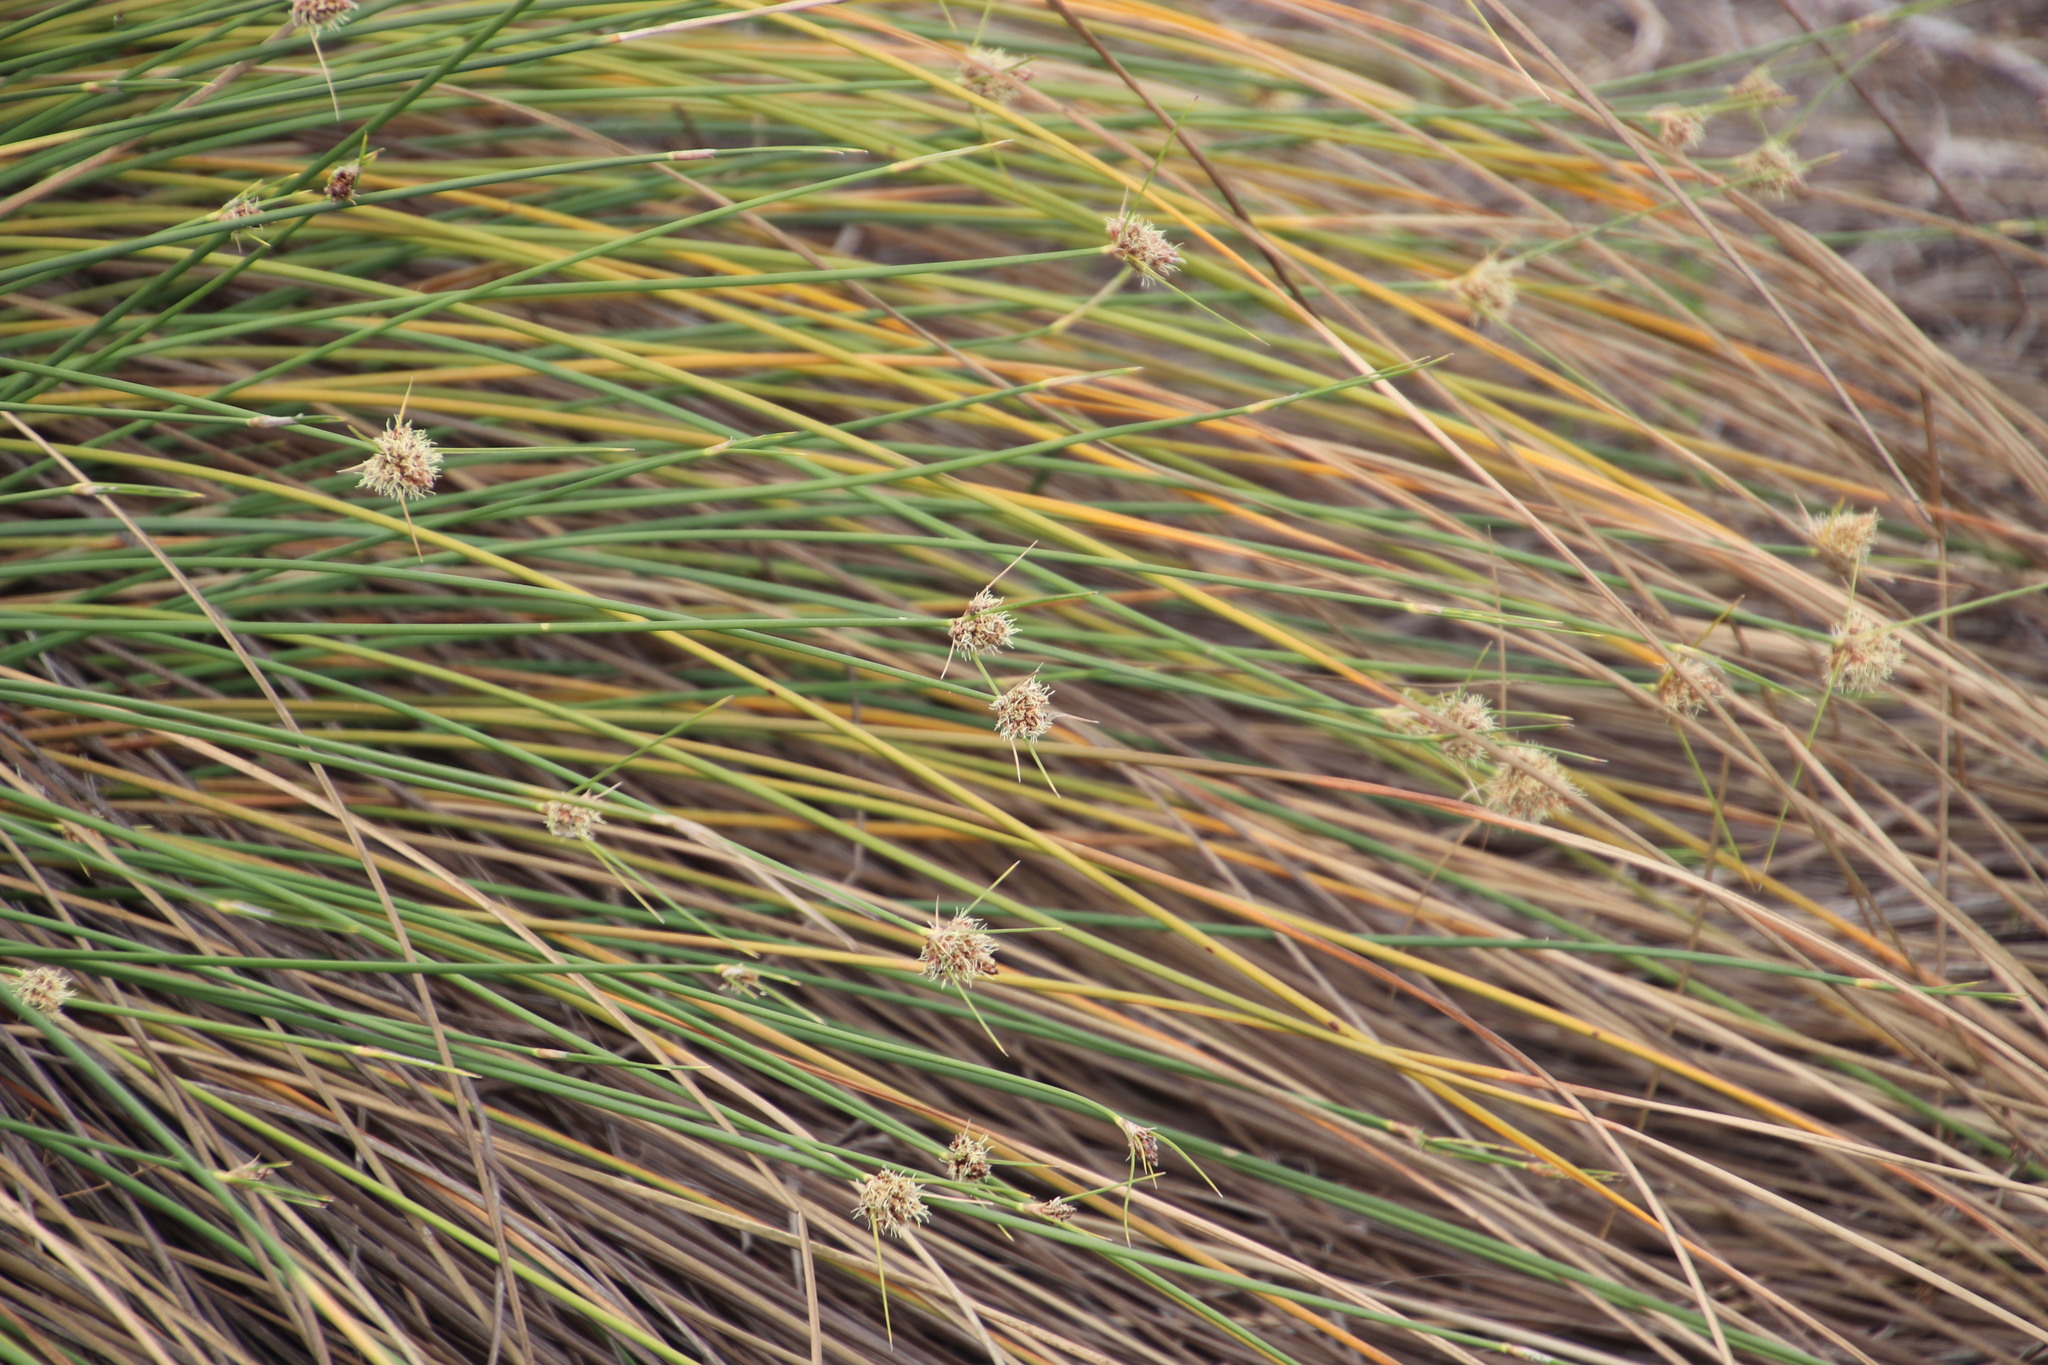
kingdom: Plantae
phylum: Tracheophyta
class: Liliopsida
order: Poales
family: Cyperaceae
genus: Ficinia
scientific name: Ficinia brevifolia
